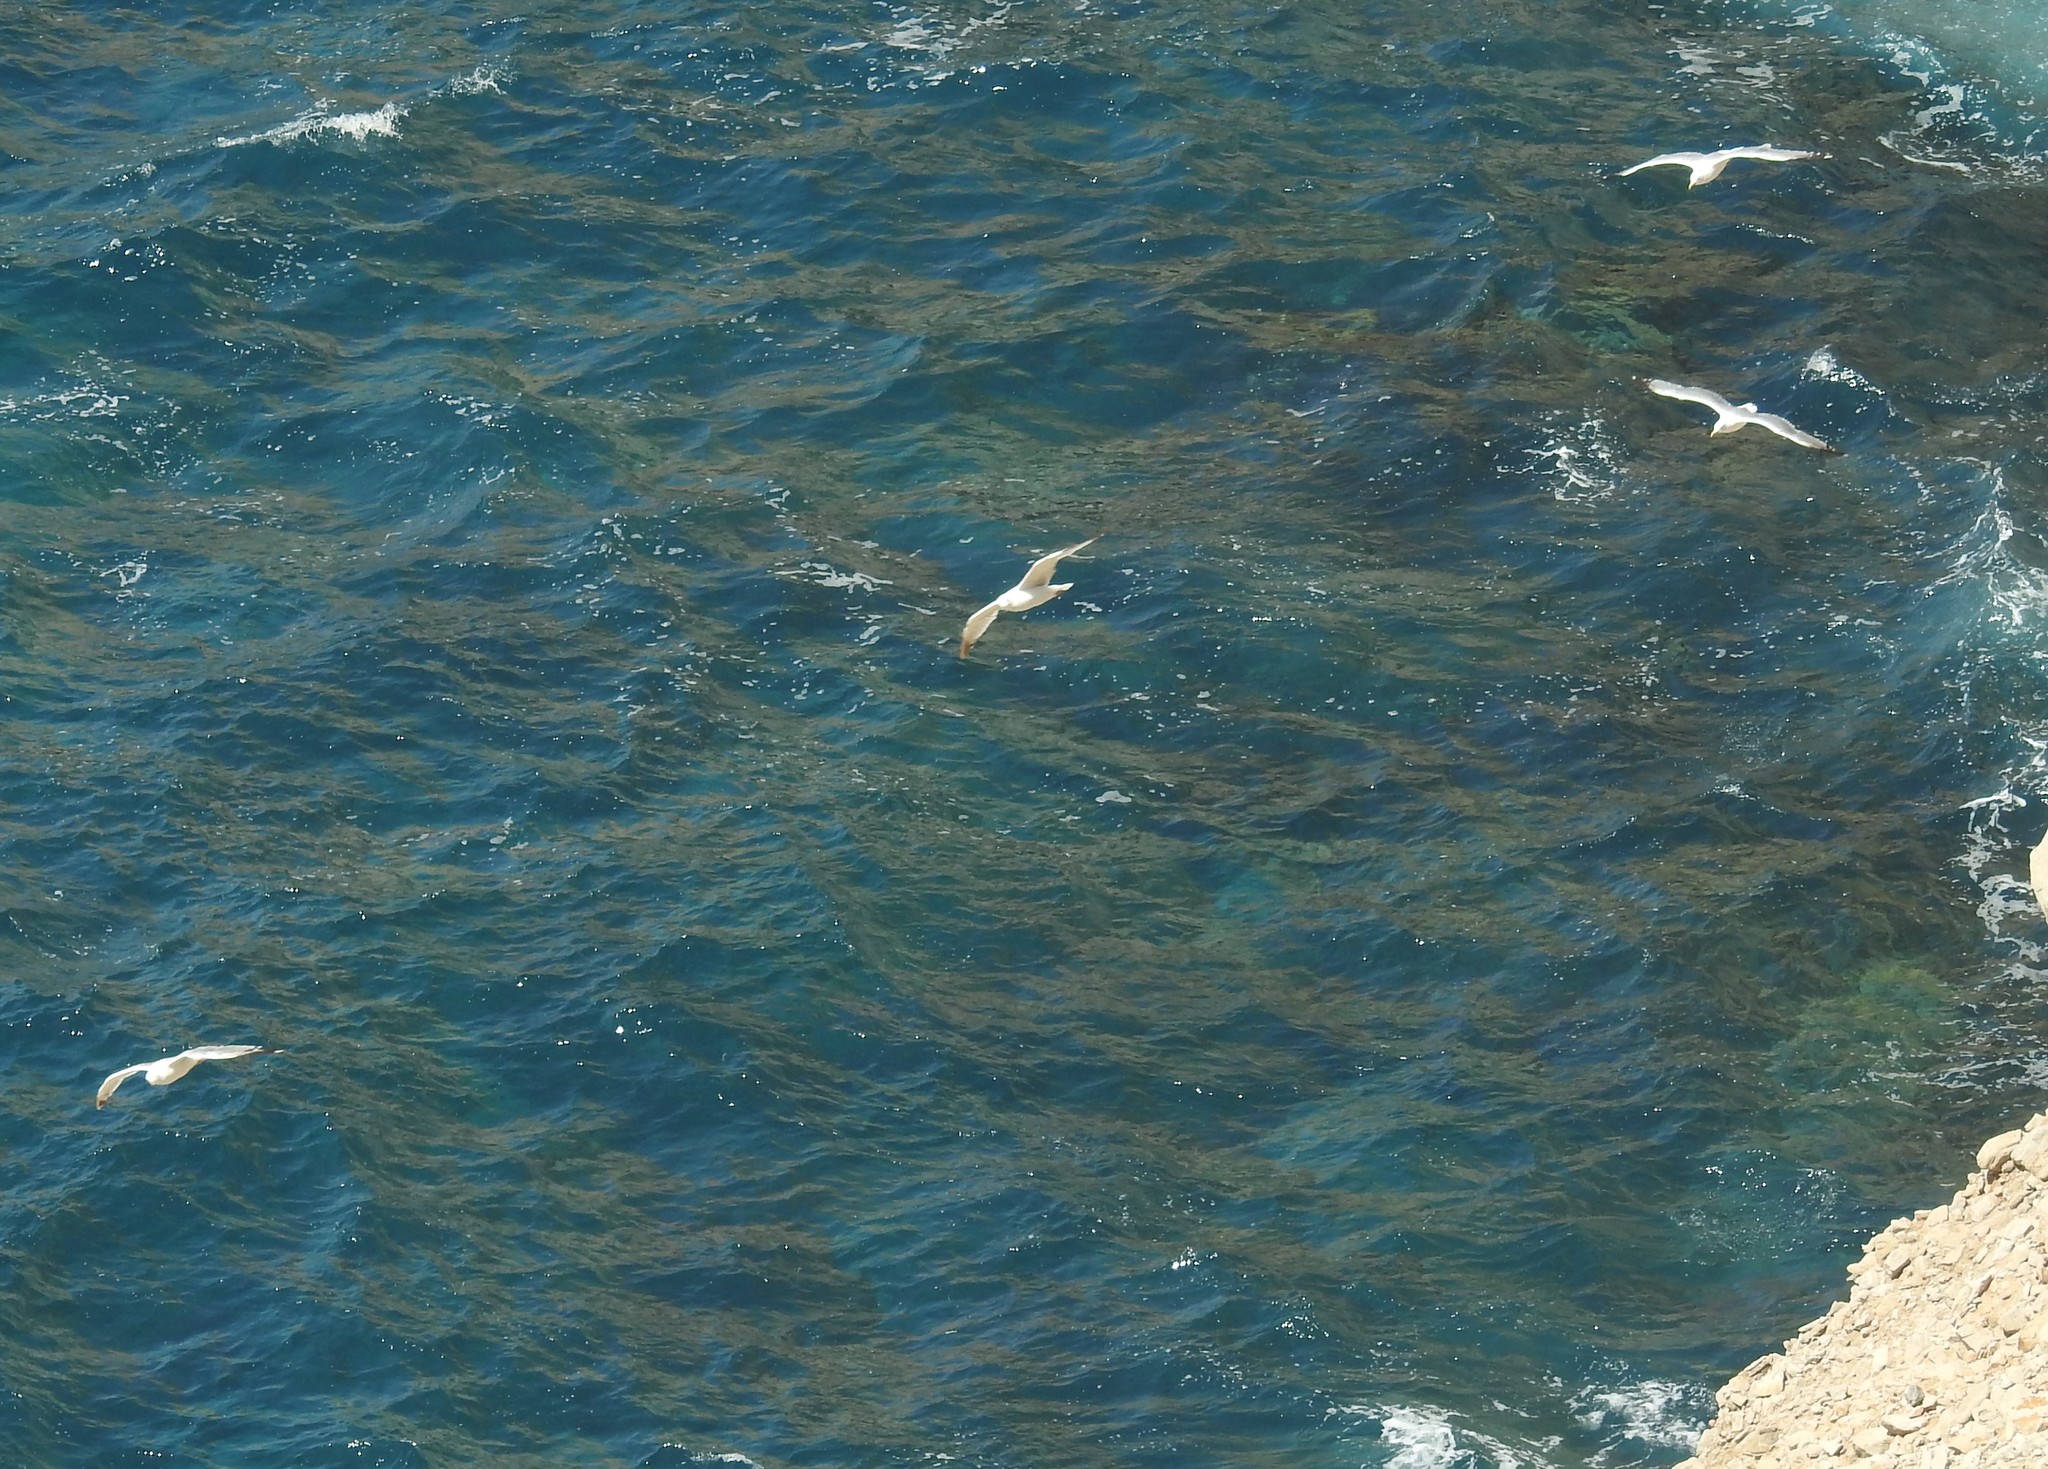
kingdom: Animalia
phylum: Chordata
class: Aves
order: Charadriiformes
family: Laridae
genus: Larus
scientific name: Larus michahellis
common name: Yellow-legged gull
